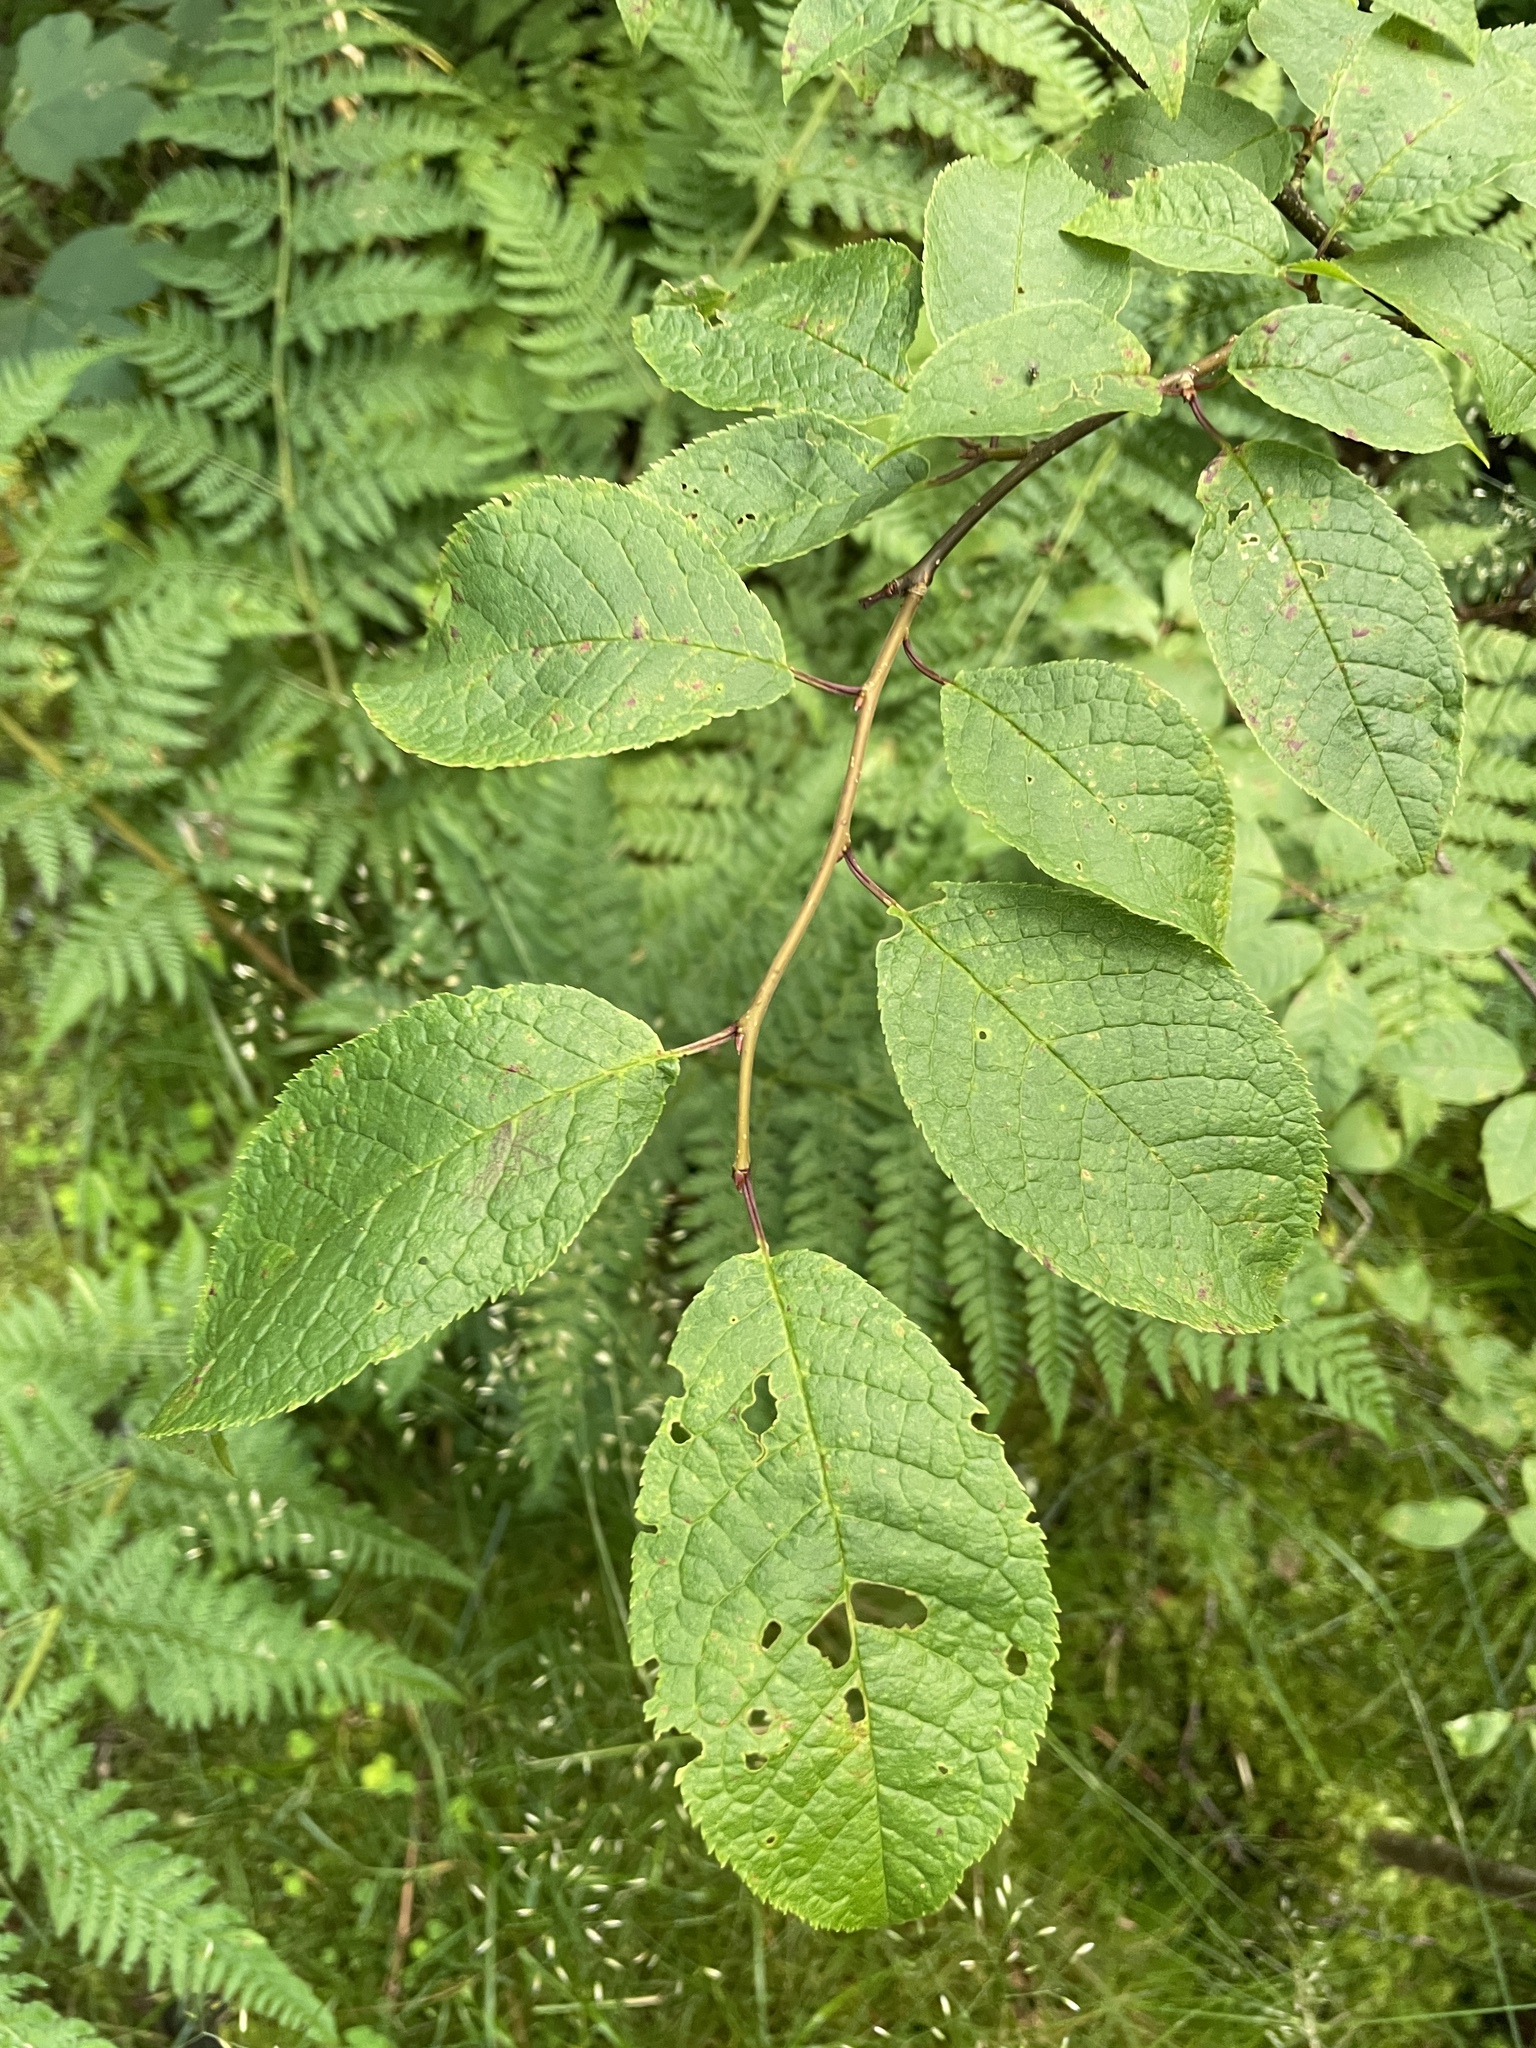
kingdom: Plantae
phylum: Tracheophyta
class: Magnoliopsida
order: Rosales
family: Rosaceae
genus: Prunus
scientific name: Prunus padus
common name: Bird cherry
